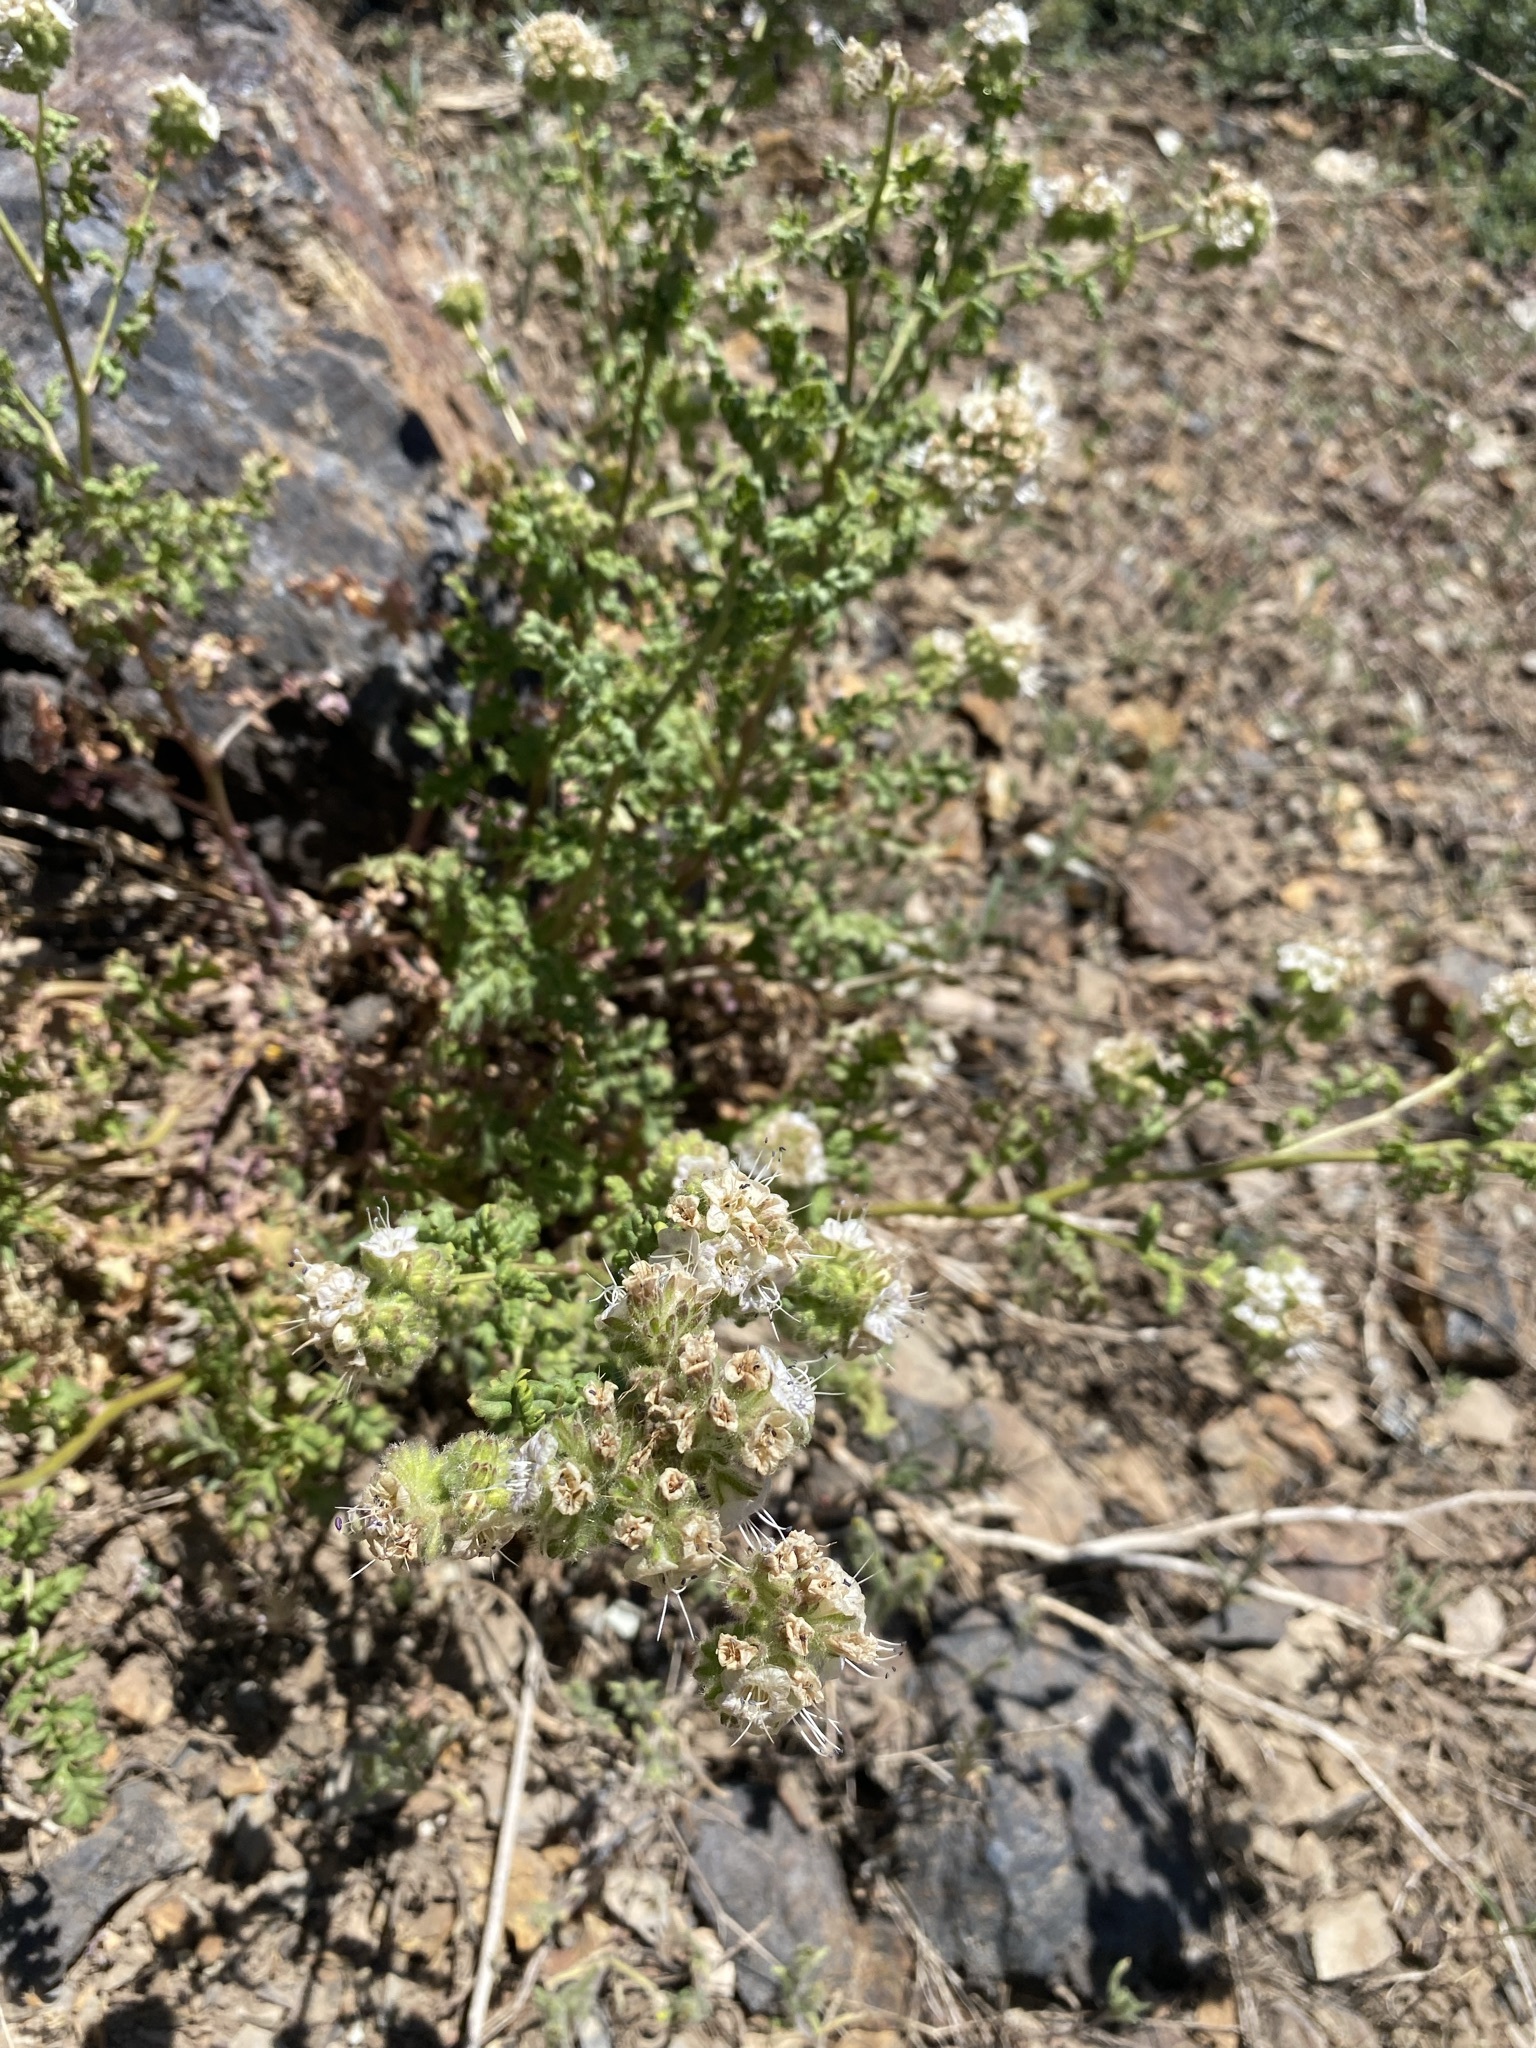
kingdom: Plantae
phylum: Tracheophyta
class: Magnoliopsida
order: Boraginales
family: Hydrophyllaceae
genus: Phacelia
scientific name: Phacelia ramosissima
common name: Branching phacelia
